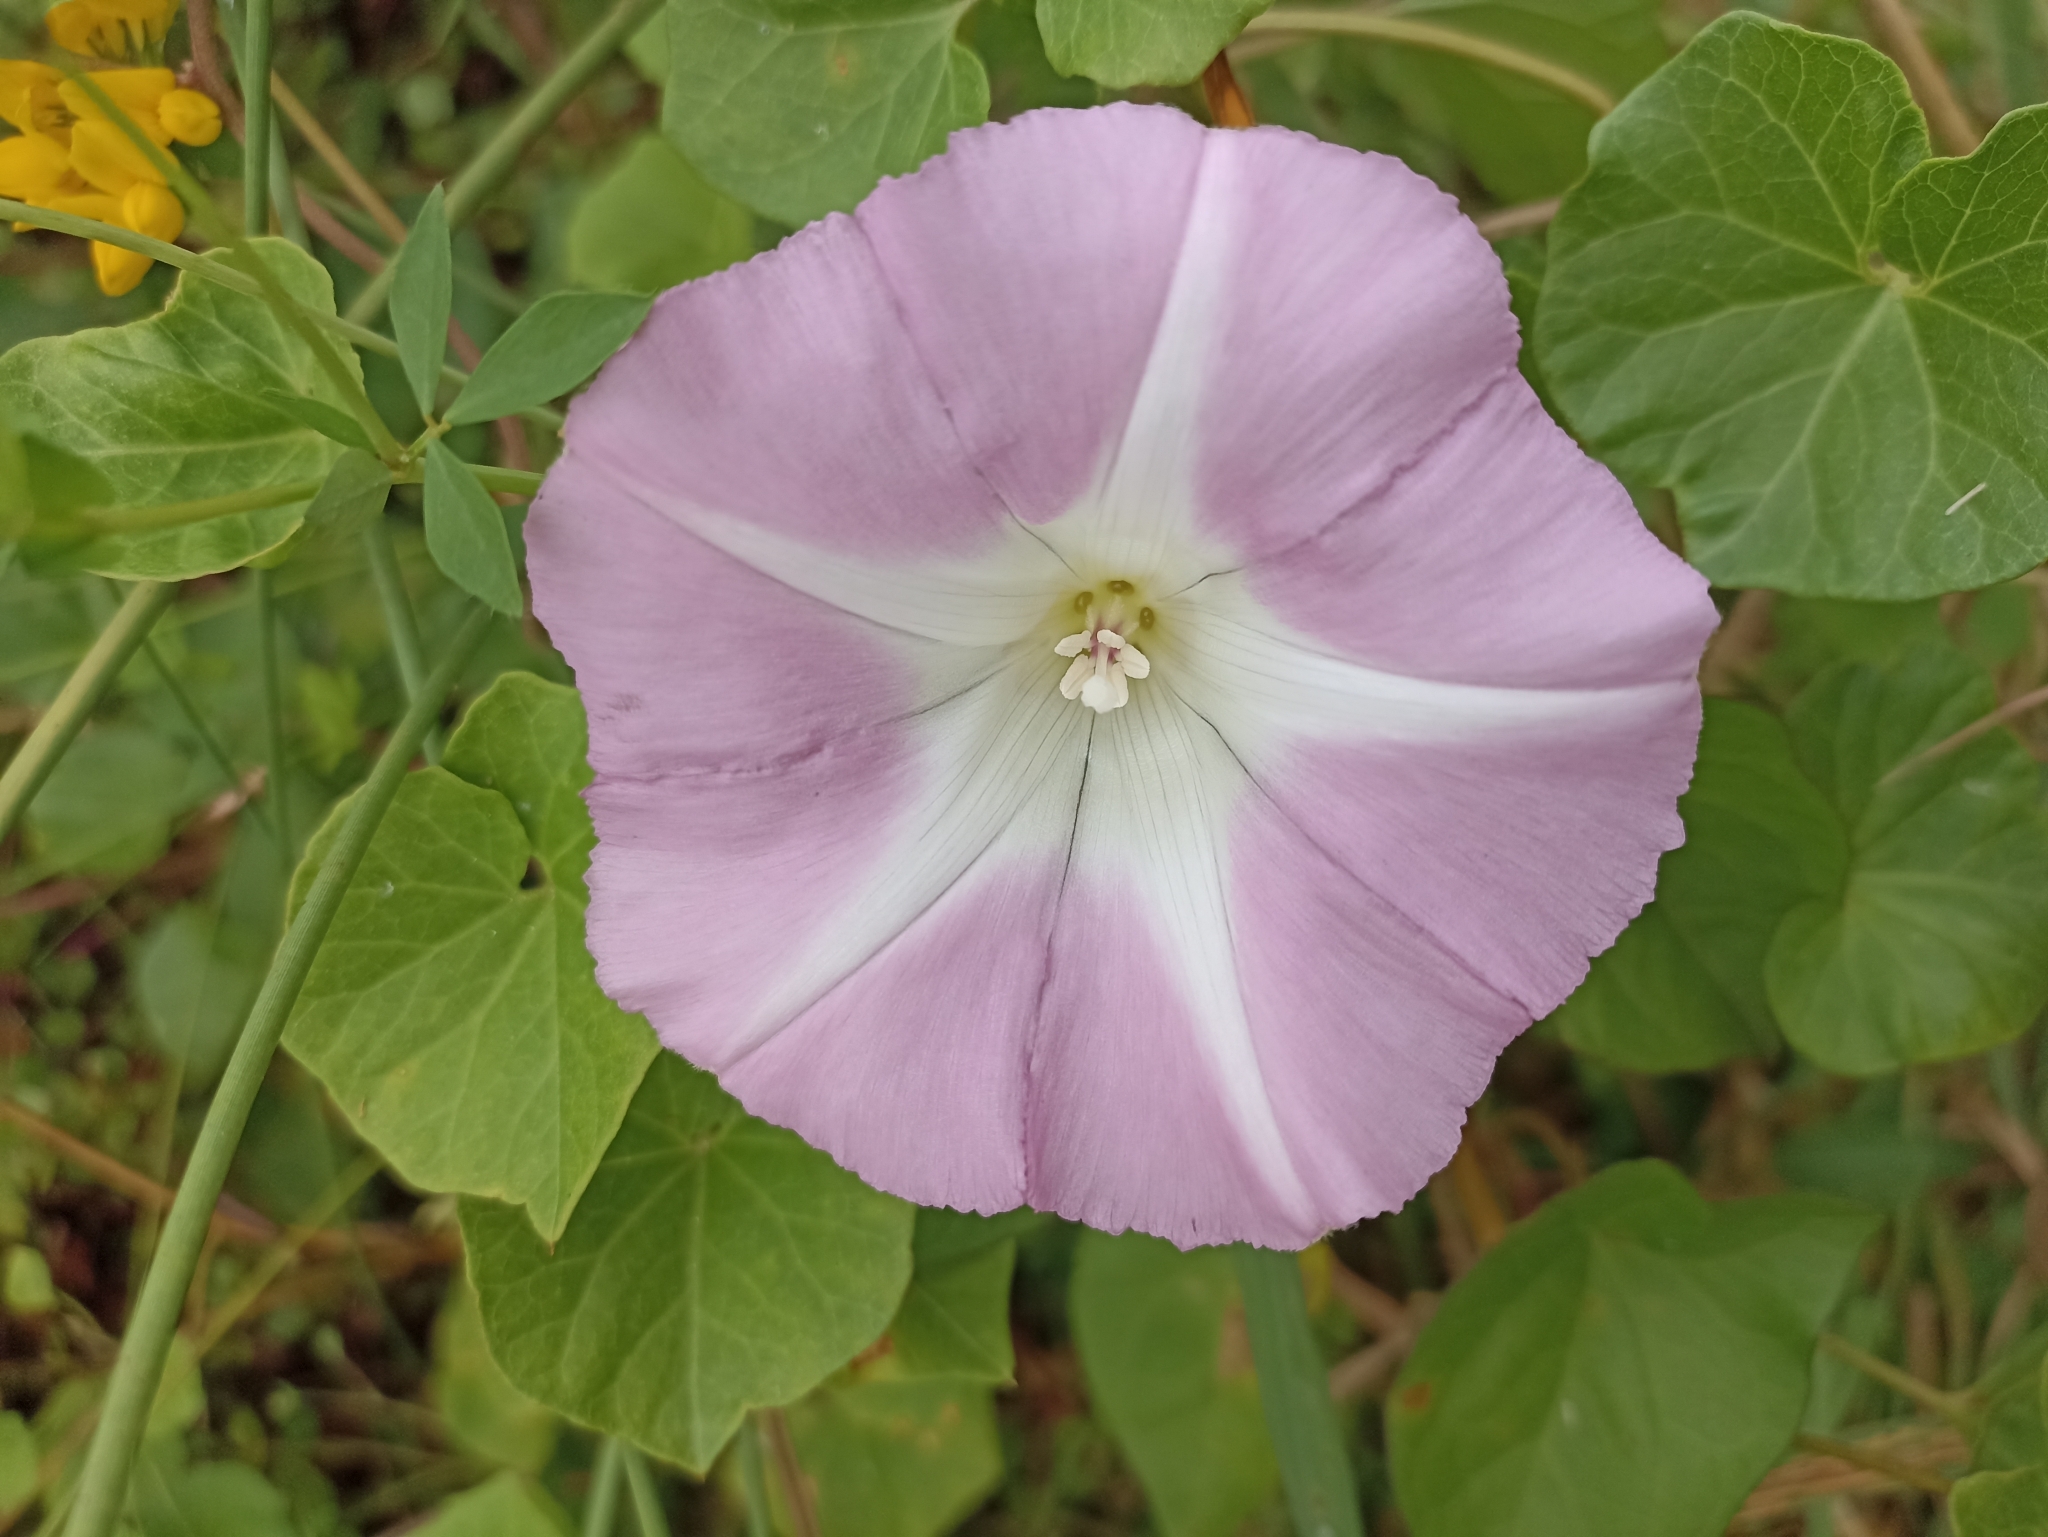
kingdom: Plantae
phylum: Tracheophyta
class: Magnoliopsida
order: Solanales
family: Convolvulaceae
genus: Calystegia
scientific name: Calystegia sepium
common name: Hedge bindweed
